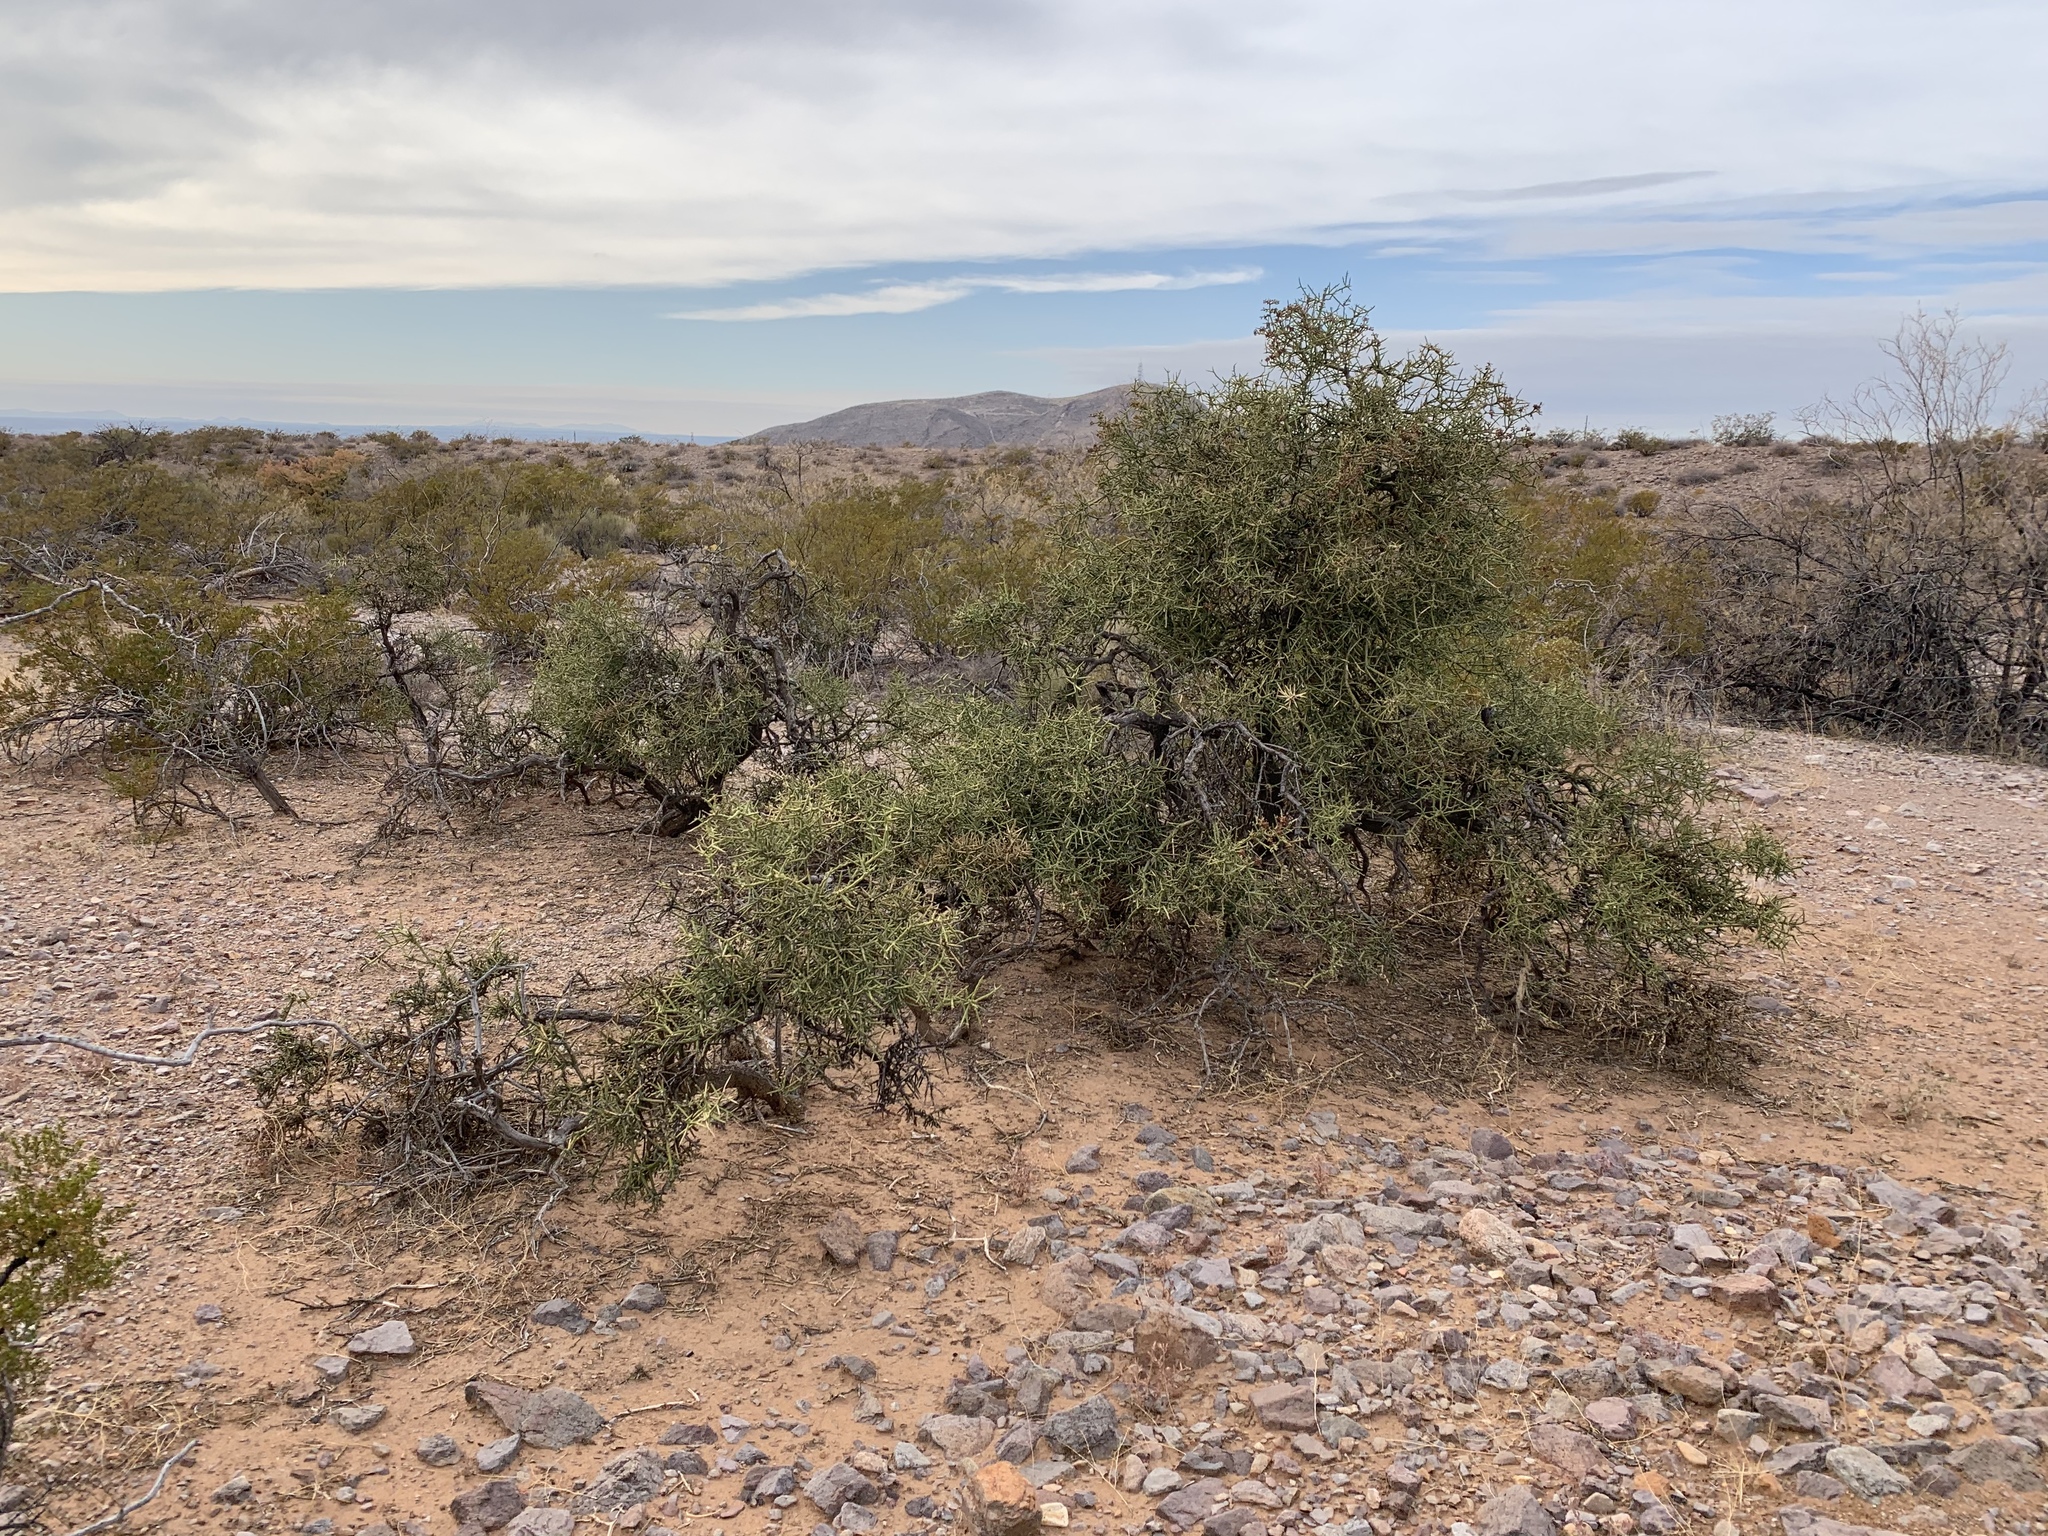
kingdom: Plantae
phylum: Tracheophyta
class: Magnoliopsida
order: Brassicales
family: Koeberliniaceae
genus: Koeberlinia
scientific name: Koeberlinia spinosa
